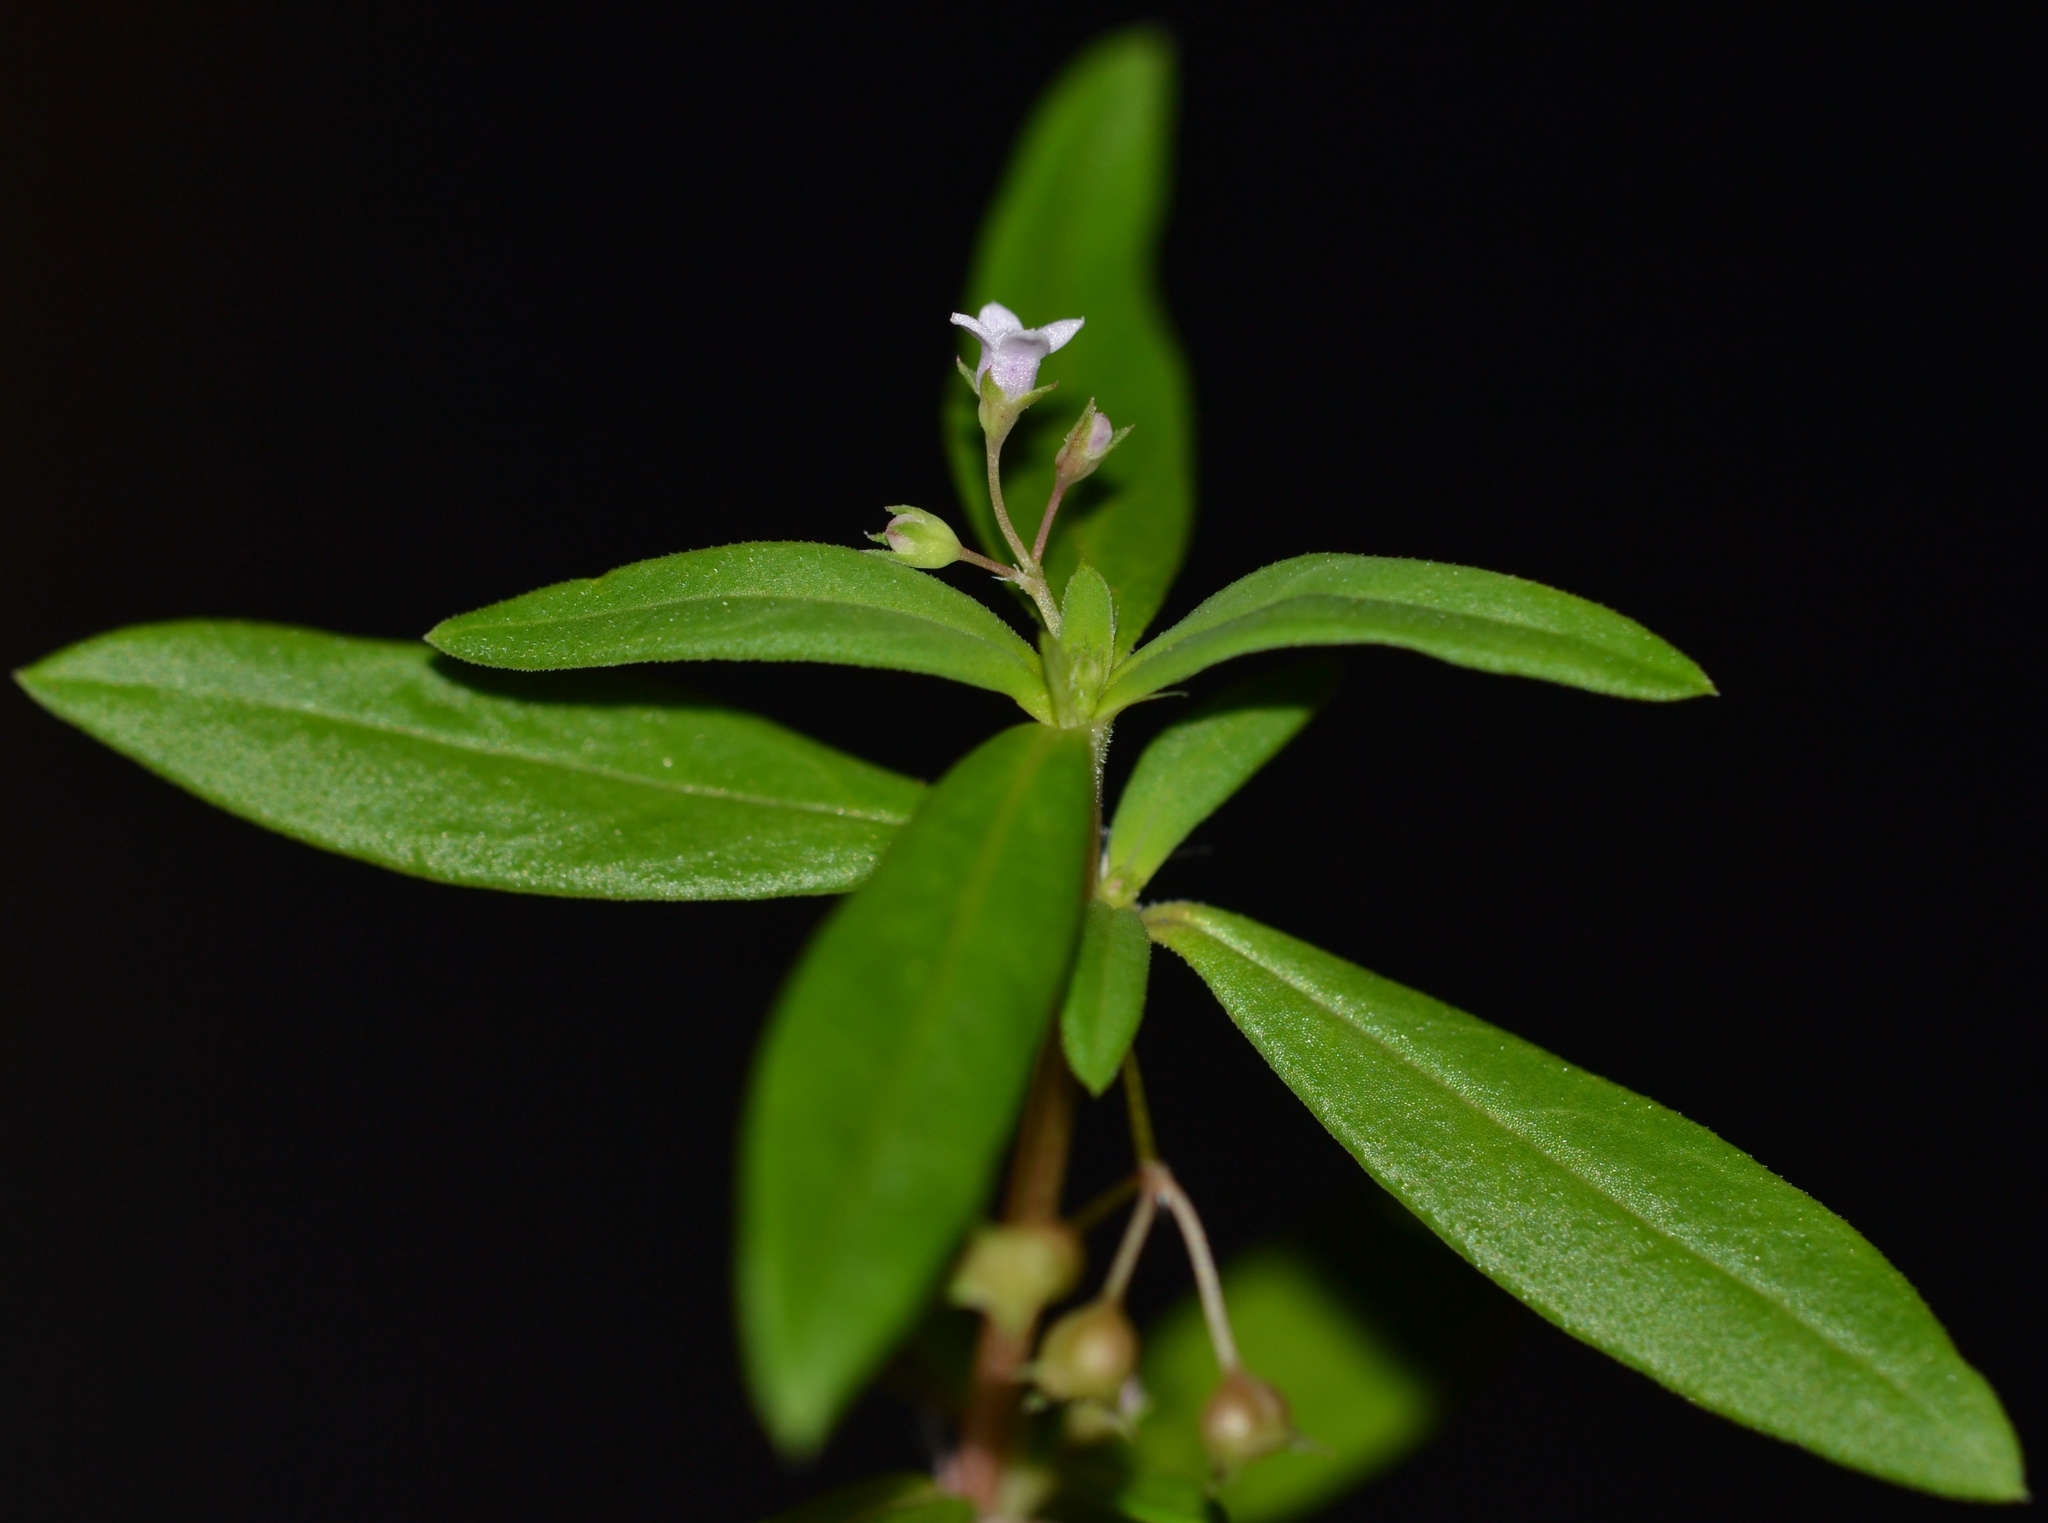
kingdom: Plantae
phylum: Tracheophyta
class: Magnoliopsida
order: Gentianales
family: Rubiaceae
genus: Oldenlandia
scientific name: Oldenlandia corymbosa
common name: Flat-top mille graines
